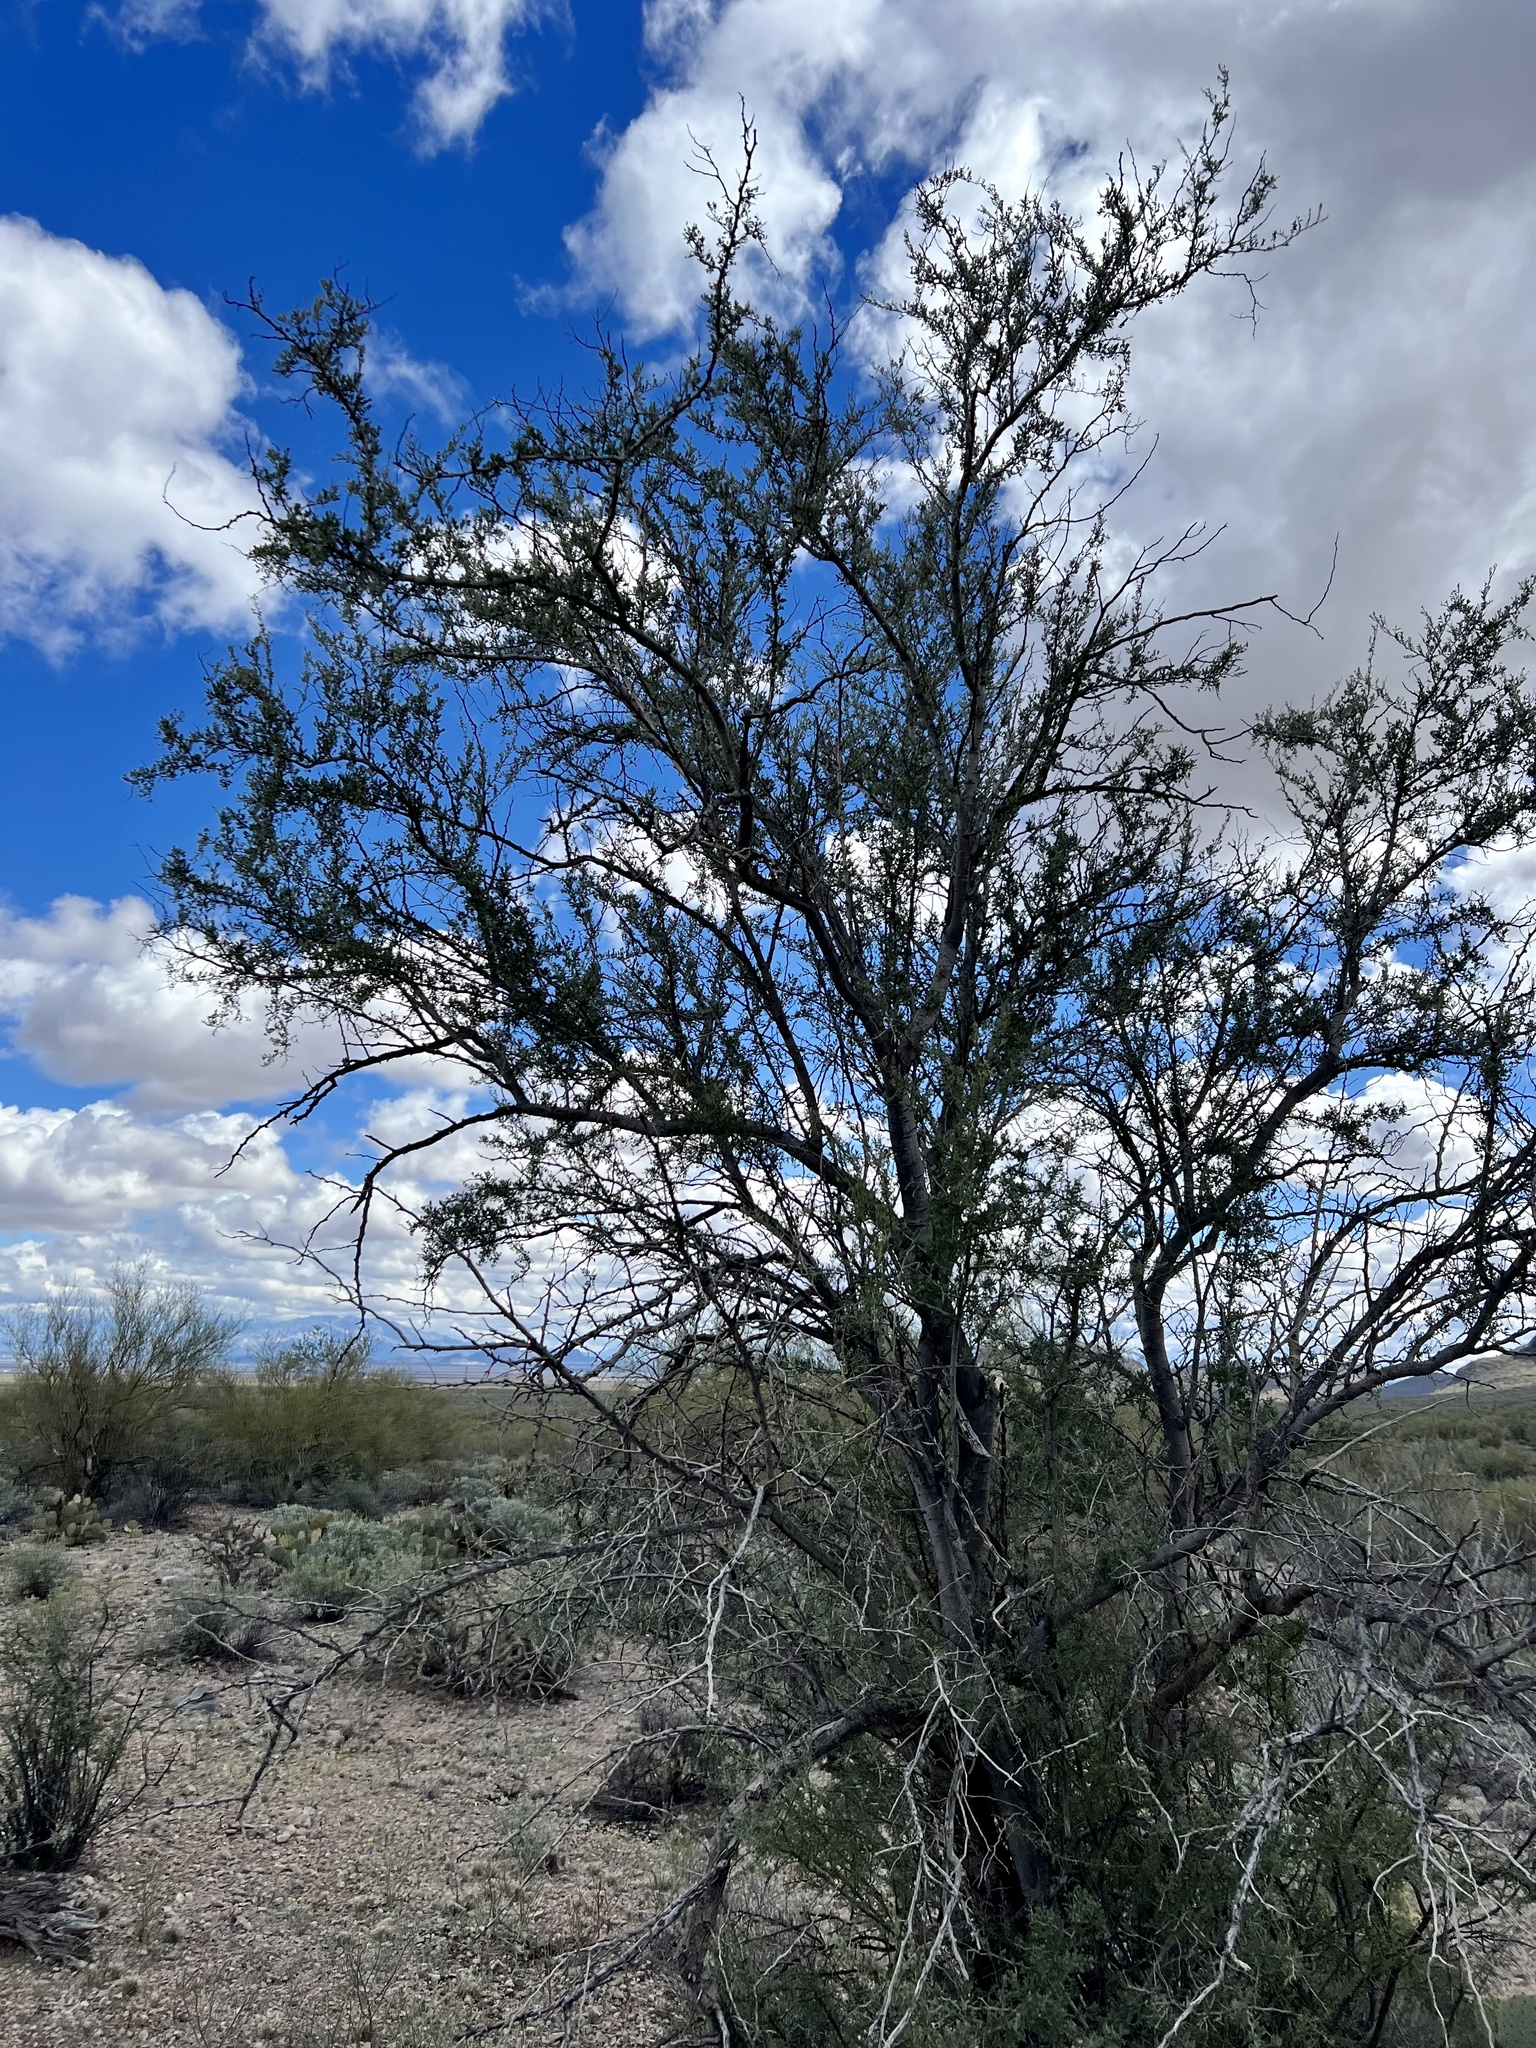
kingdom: Plantae
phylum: Tracheophyta
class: Magnoliopsida
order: Fabales
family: Fabaceae
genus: Olneya
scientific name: Olneya tesota
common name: Desert ironwood
